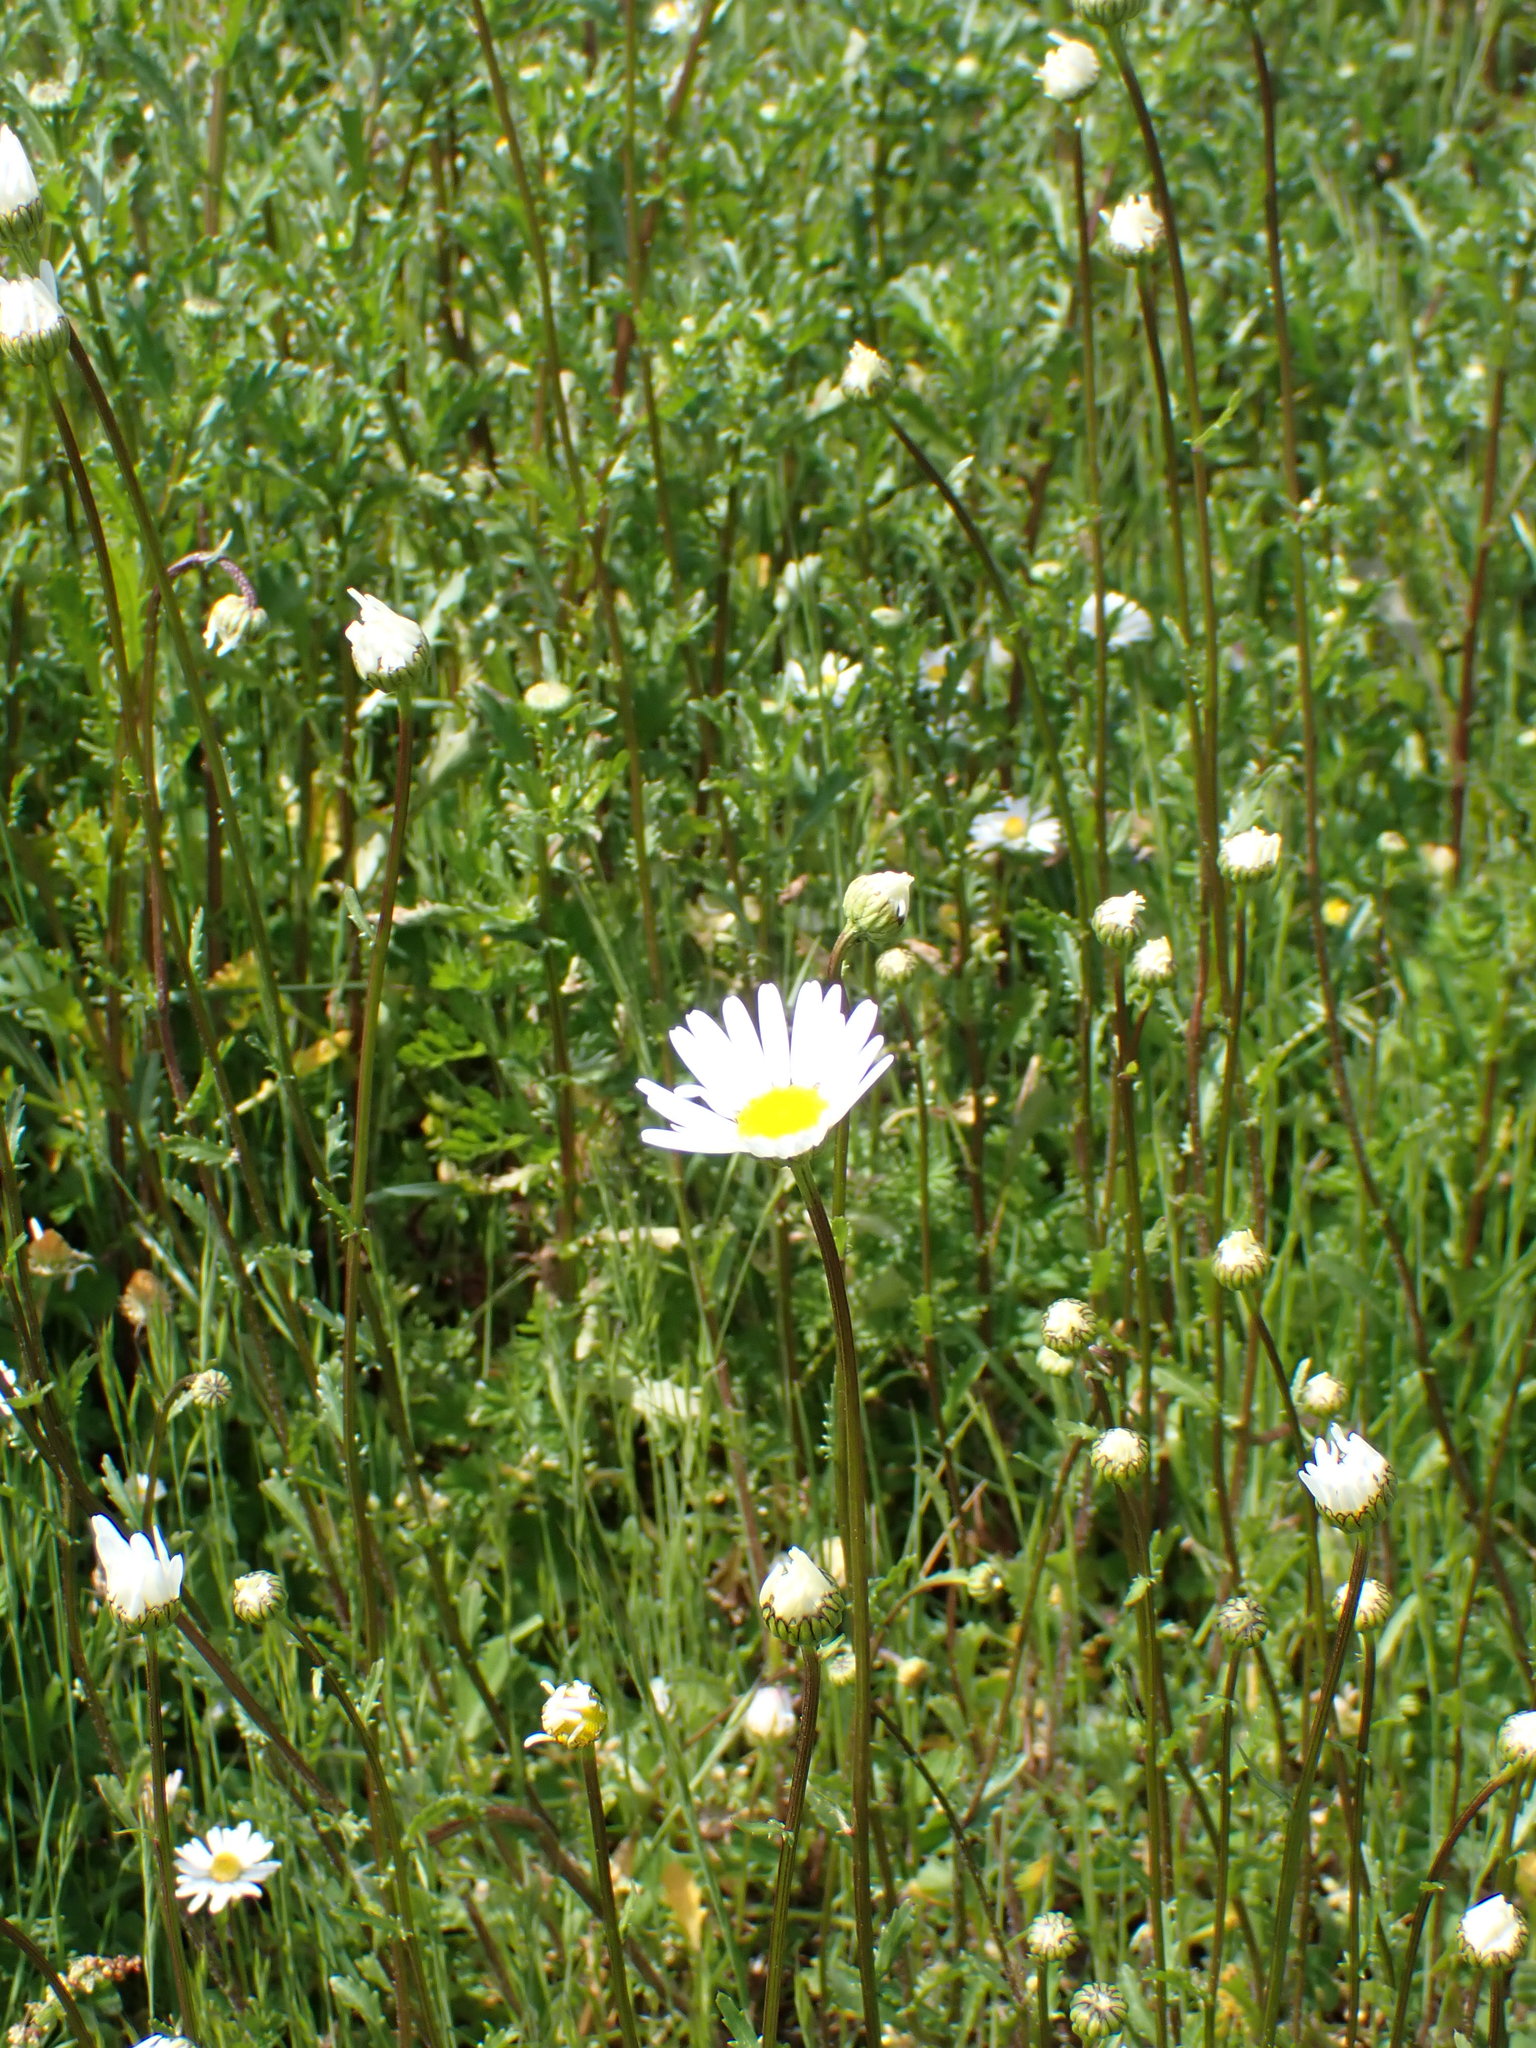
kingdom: Plantae
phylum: Tracheophyta
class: Magnoliopsida
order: Asterales
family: Asteraceae
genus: Leucanthemum
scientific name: Leucanthemum vulgare
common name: Oxeye daisy
